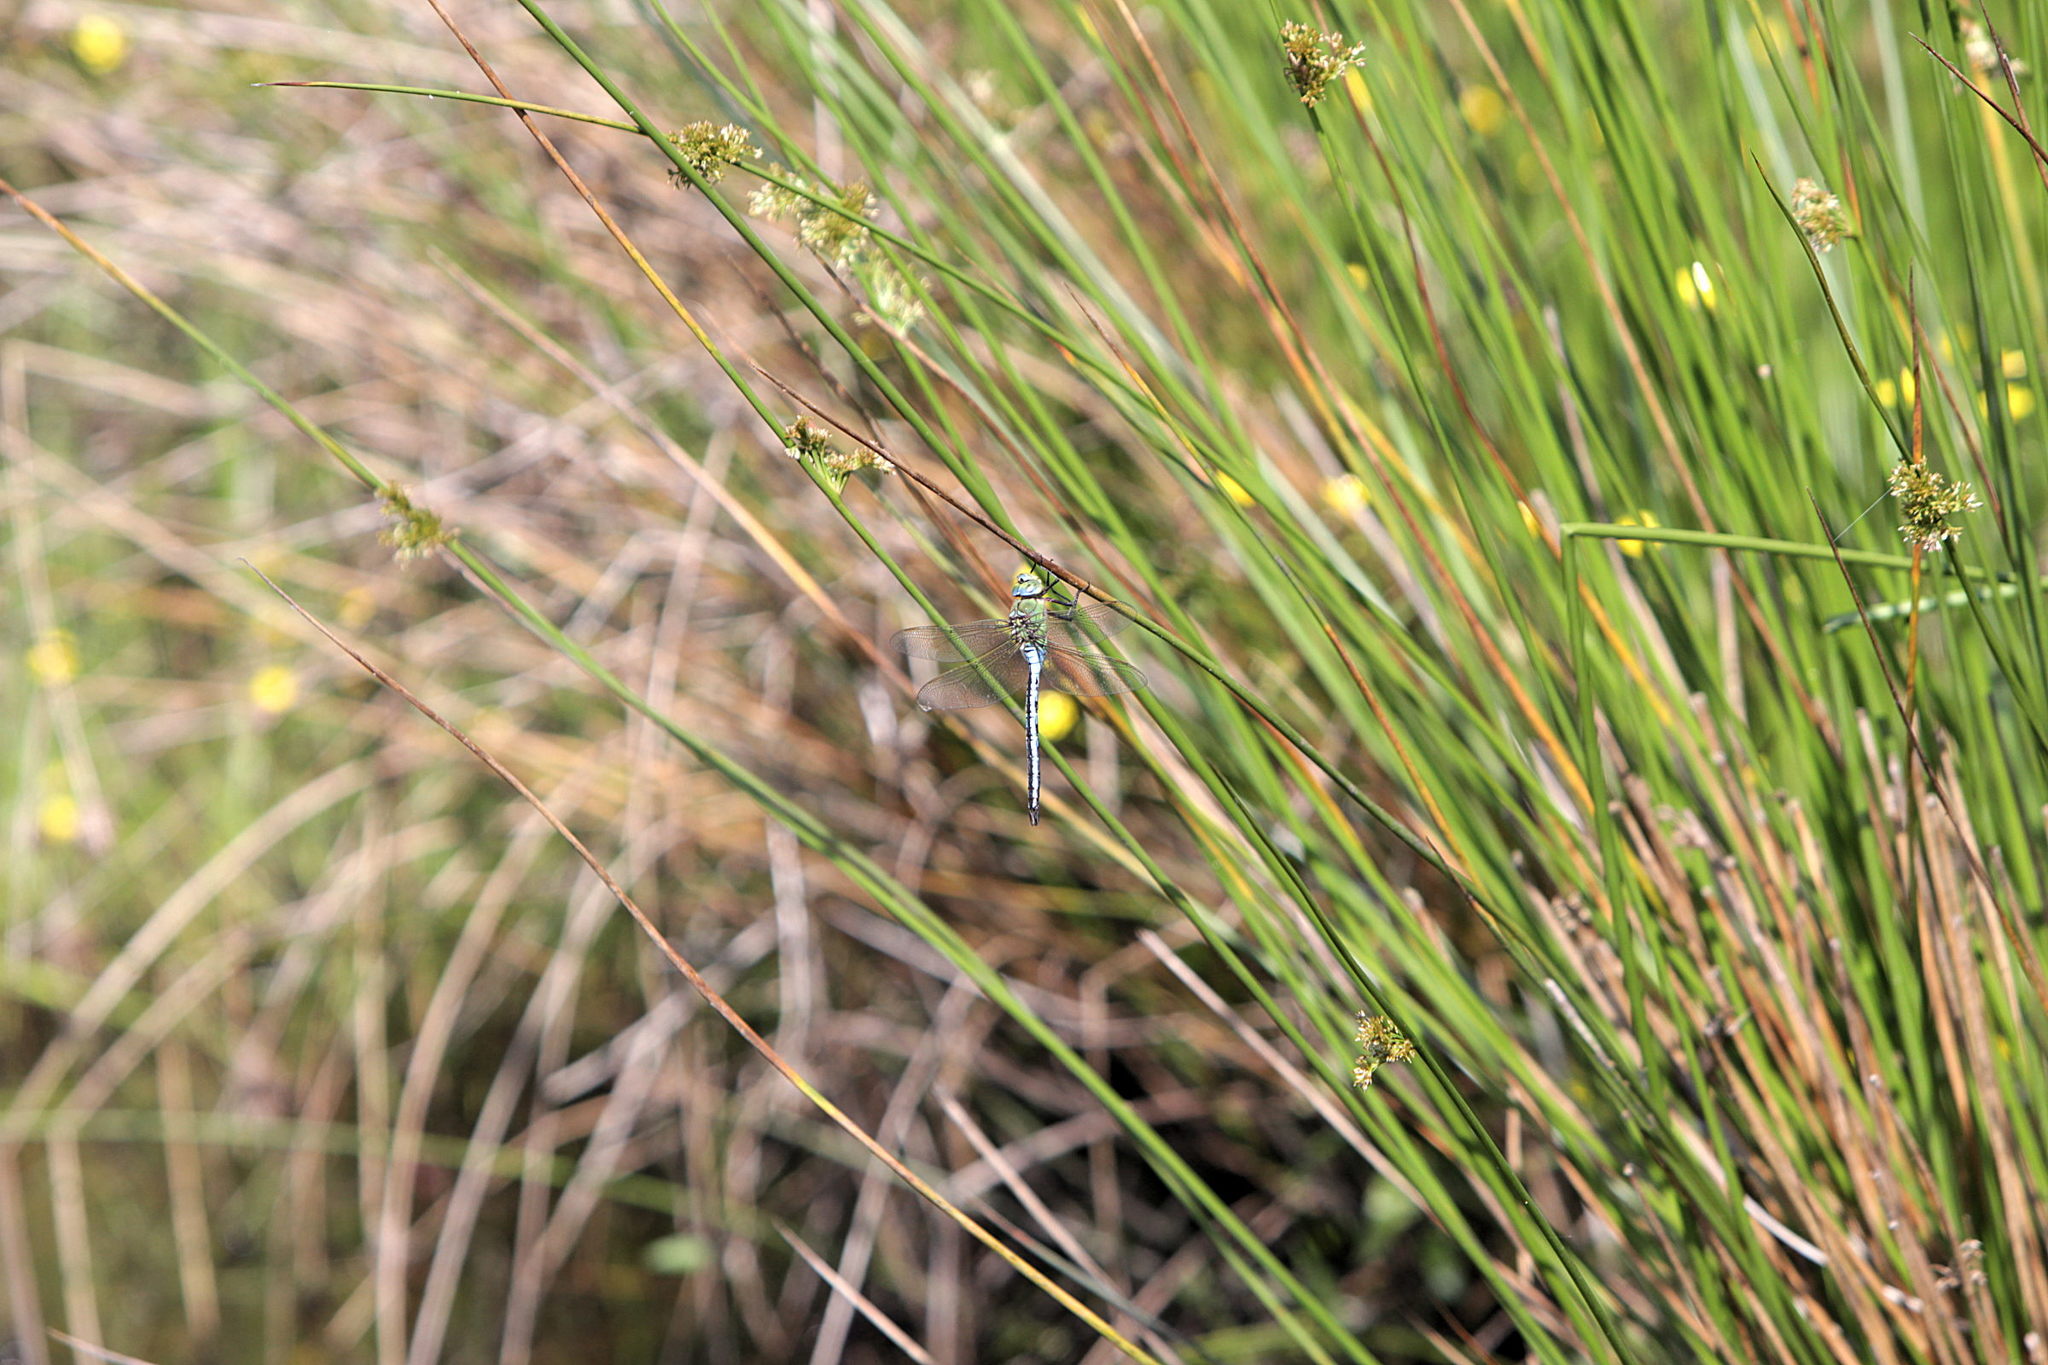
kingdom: Animalia
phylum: Arthropoda
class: Insecta
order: Odonata
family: Aeshnidae
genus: Anax
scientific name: Anax imperator
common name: Emperor dragonfly
